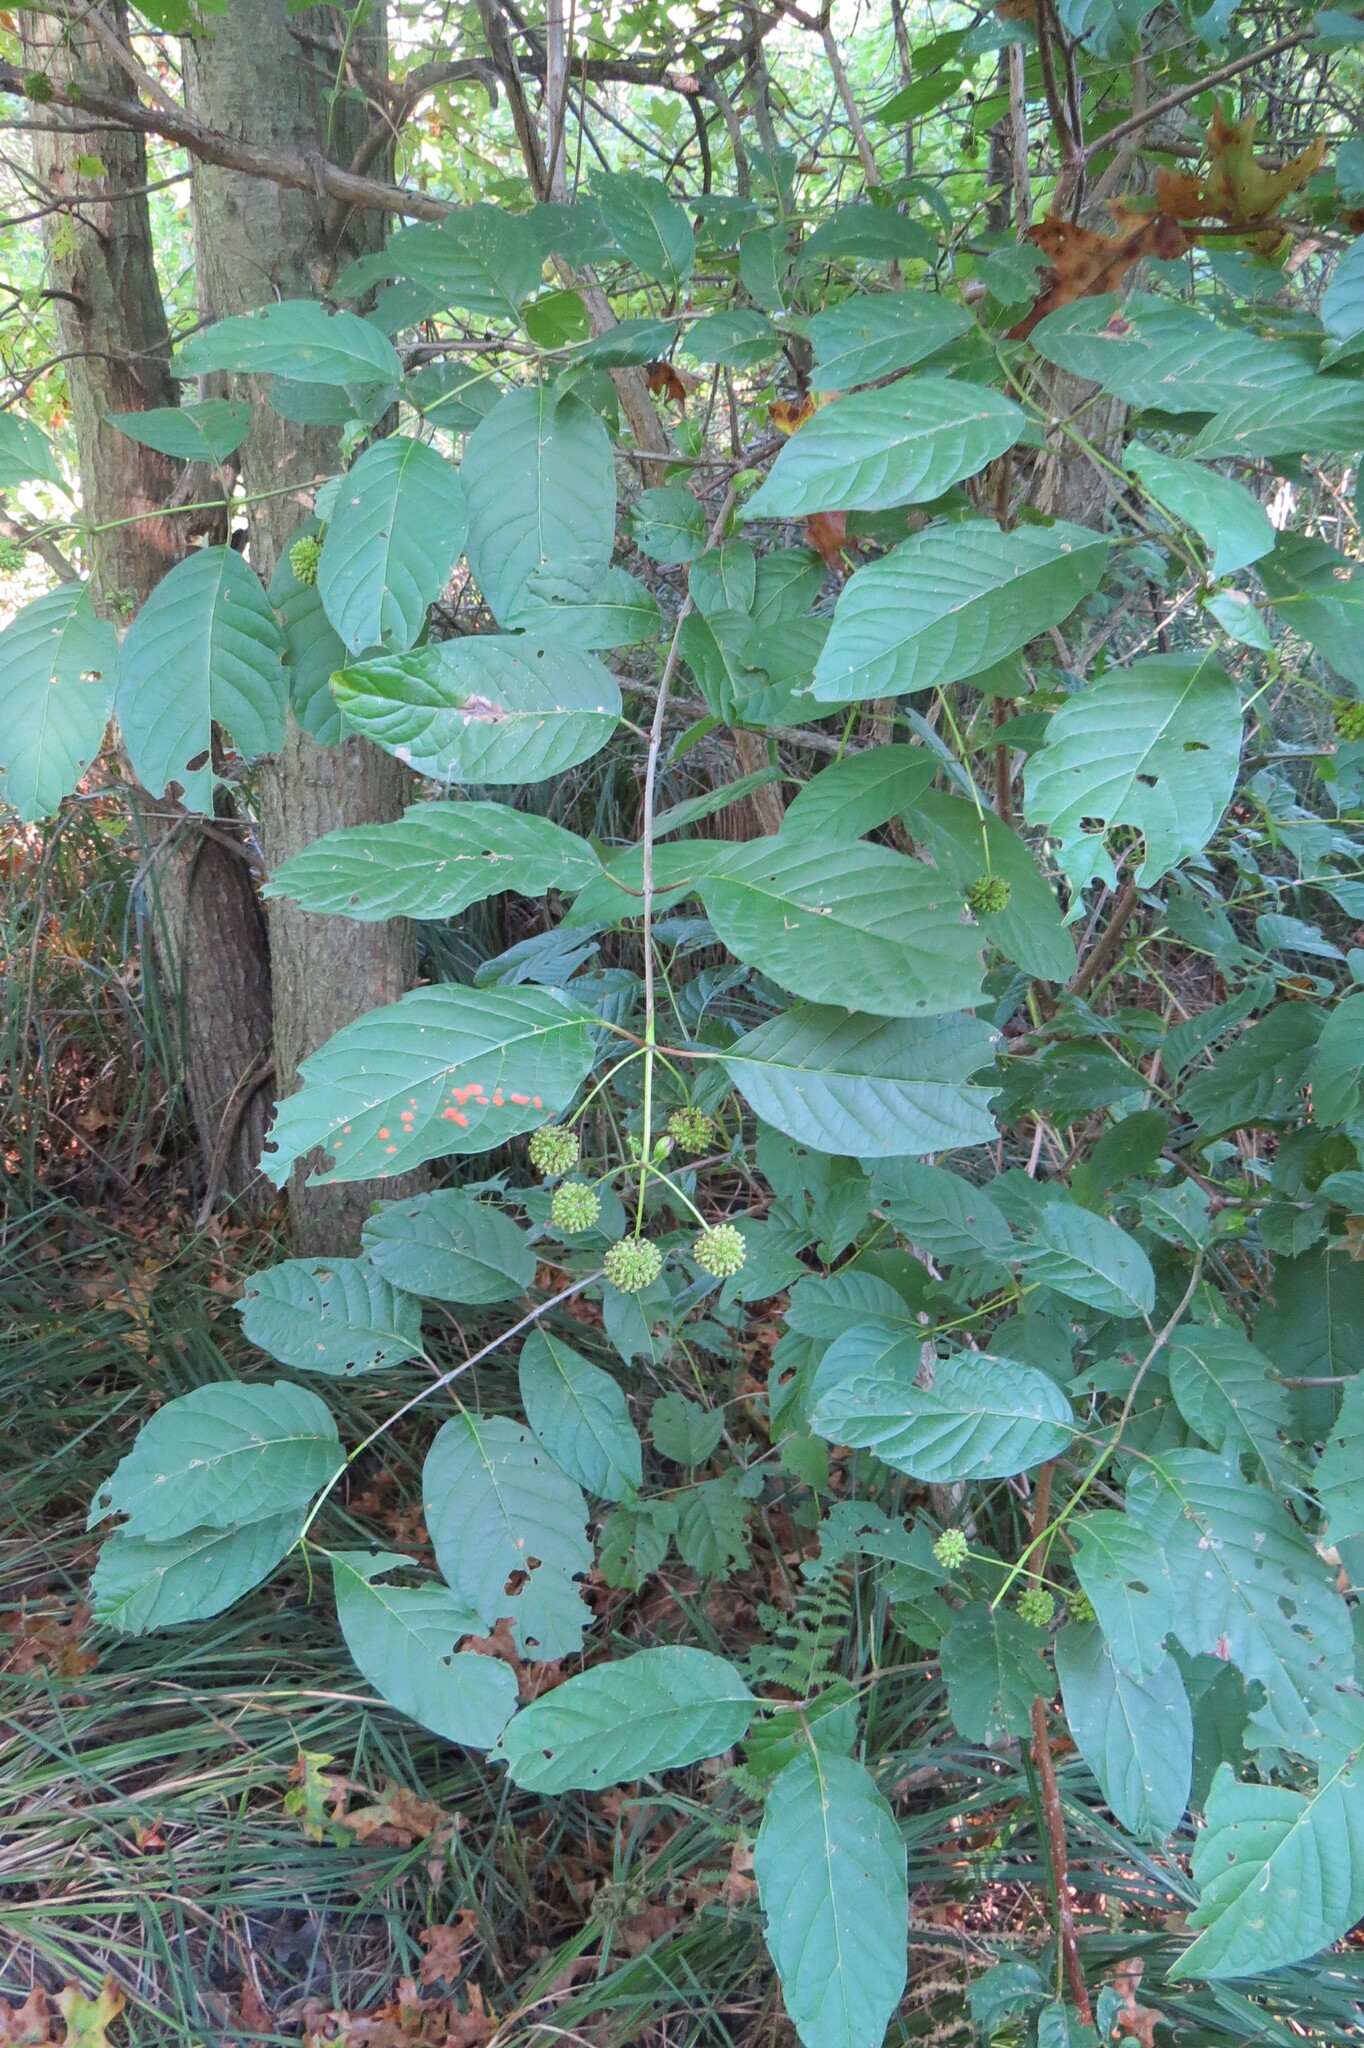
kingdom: Plantae
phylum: Tracheophyta
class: Magnoliopsida
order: Gentianales
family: Rubiaceae
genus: Cephalanthus
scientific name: Cephalanthus occidentalis
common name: Button-willow
